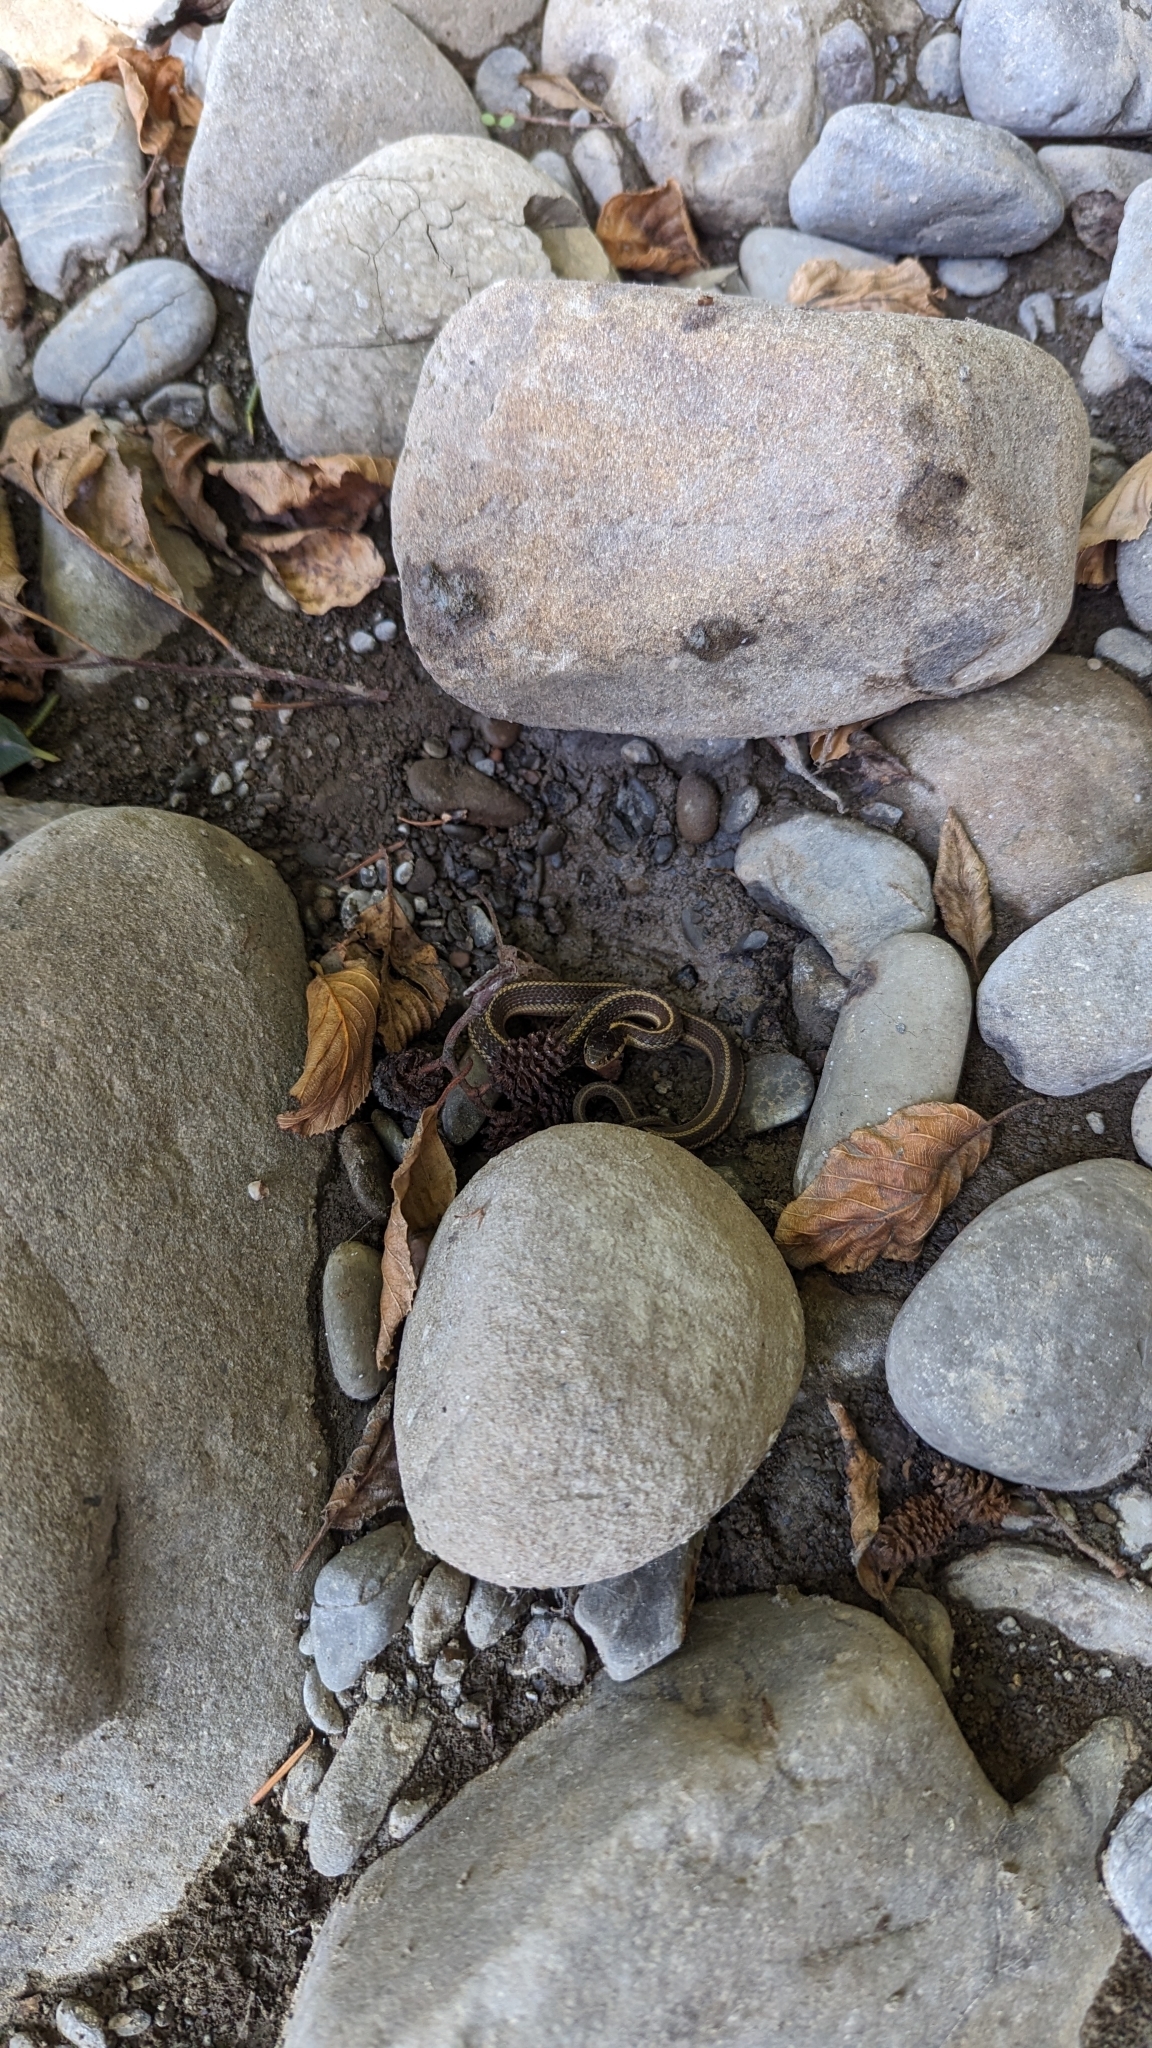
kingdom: Animalia
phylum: Chordata
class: Squamata
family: Colubridae
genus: Thamnophis
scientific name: Thamnophis elegans
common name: Western terrestrial garter snake
